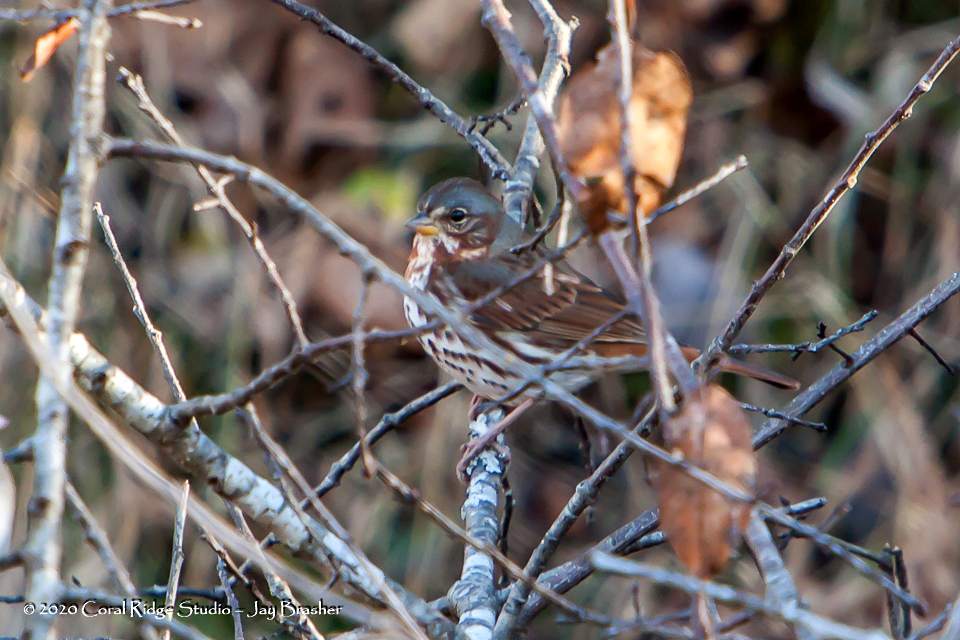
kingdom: Animalia
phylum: Chordata
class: Aves
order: Passeriformes
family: Passerellidae
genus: Passerella
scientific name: Passerella iliaca
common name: Fox sparrow
